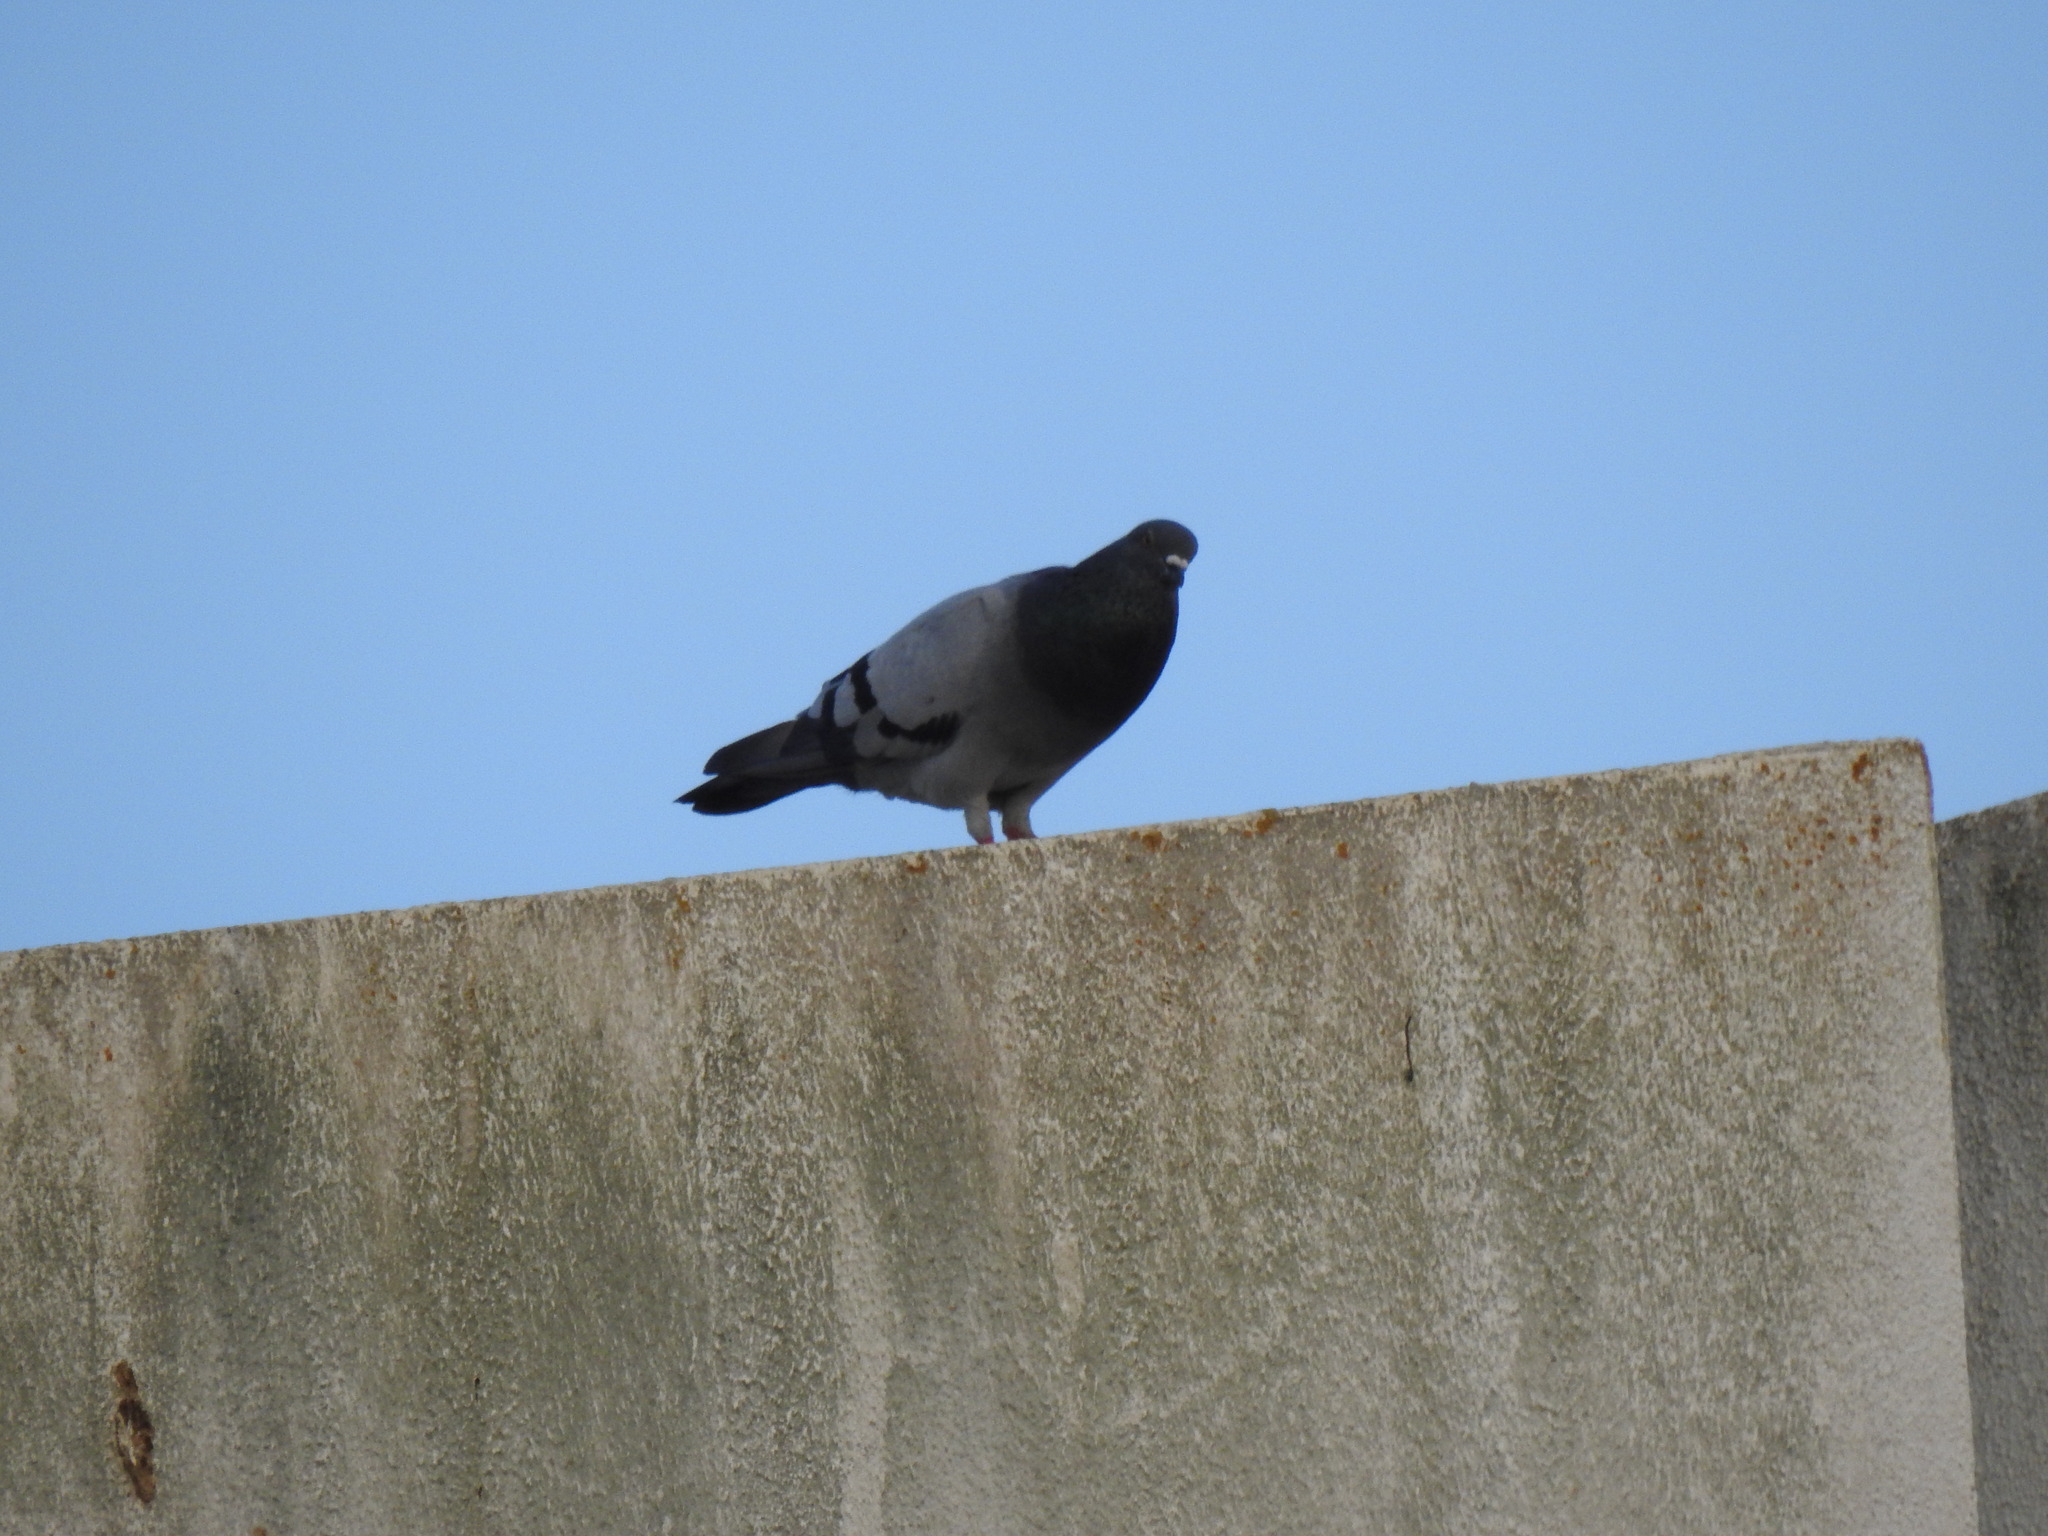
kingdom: Animalia
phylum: Chordata
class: Aves
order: Columbiformes
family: Columbidae
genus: Columba
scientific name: Columba livia
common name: Rock pigeon
